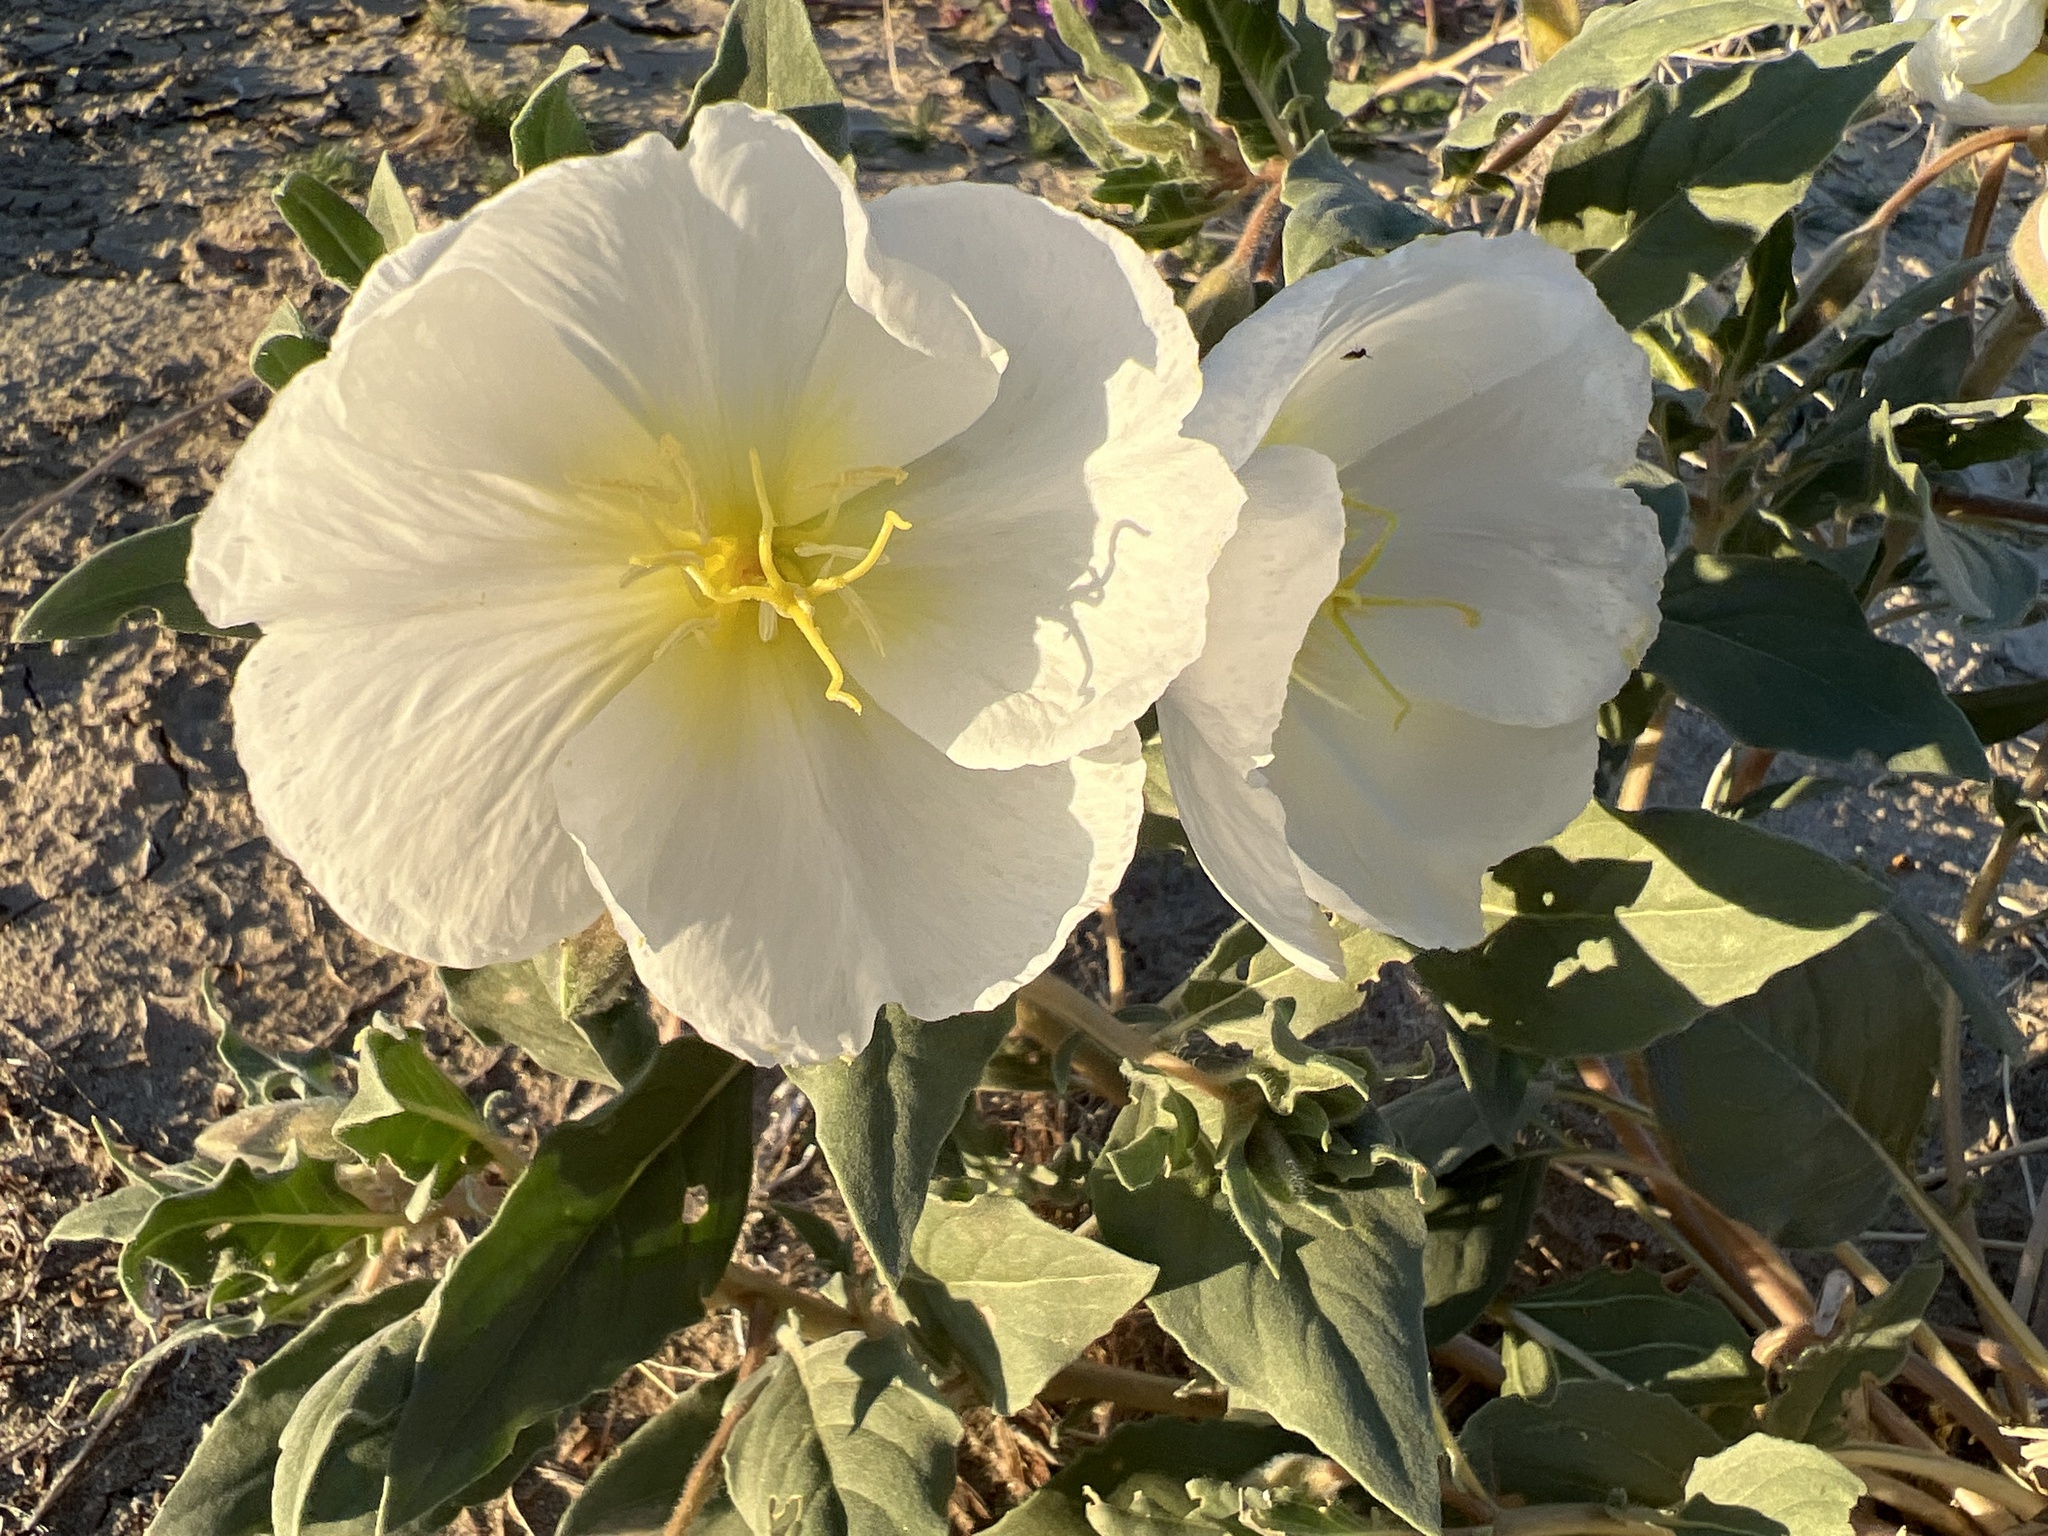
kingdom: Plantae
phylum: Tracheophyta
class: Magnoliopsida
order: Myrtales
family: Onagraceae
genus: Oenothera
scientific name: Oenothera deltoides
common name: Basket evening-primrose
